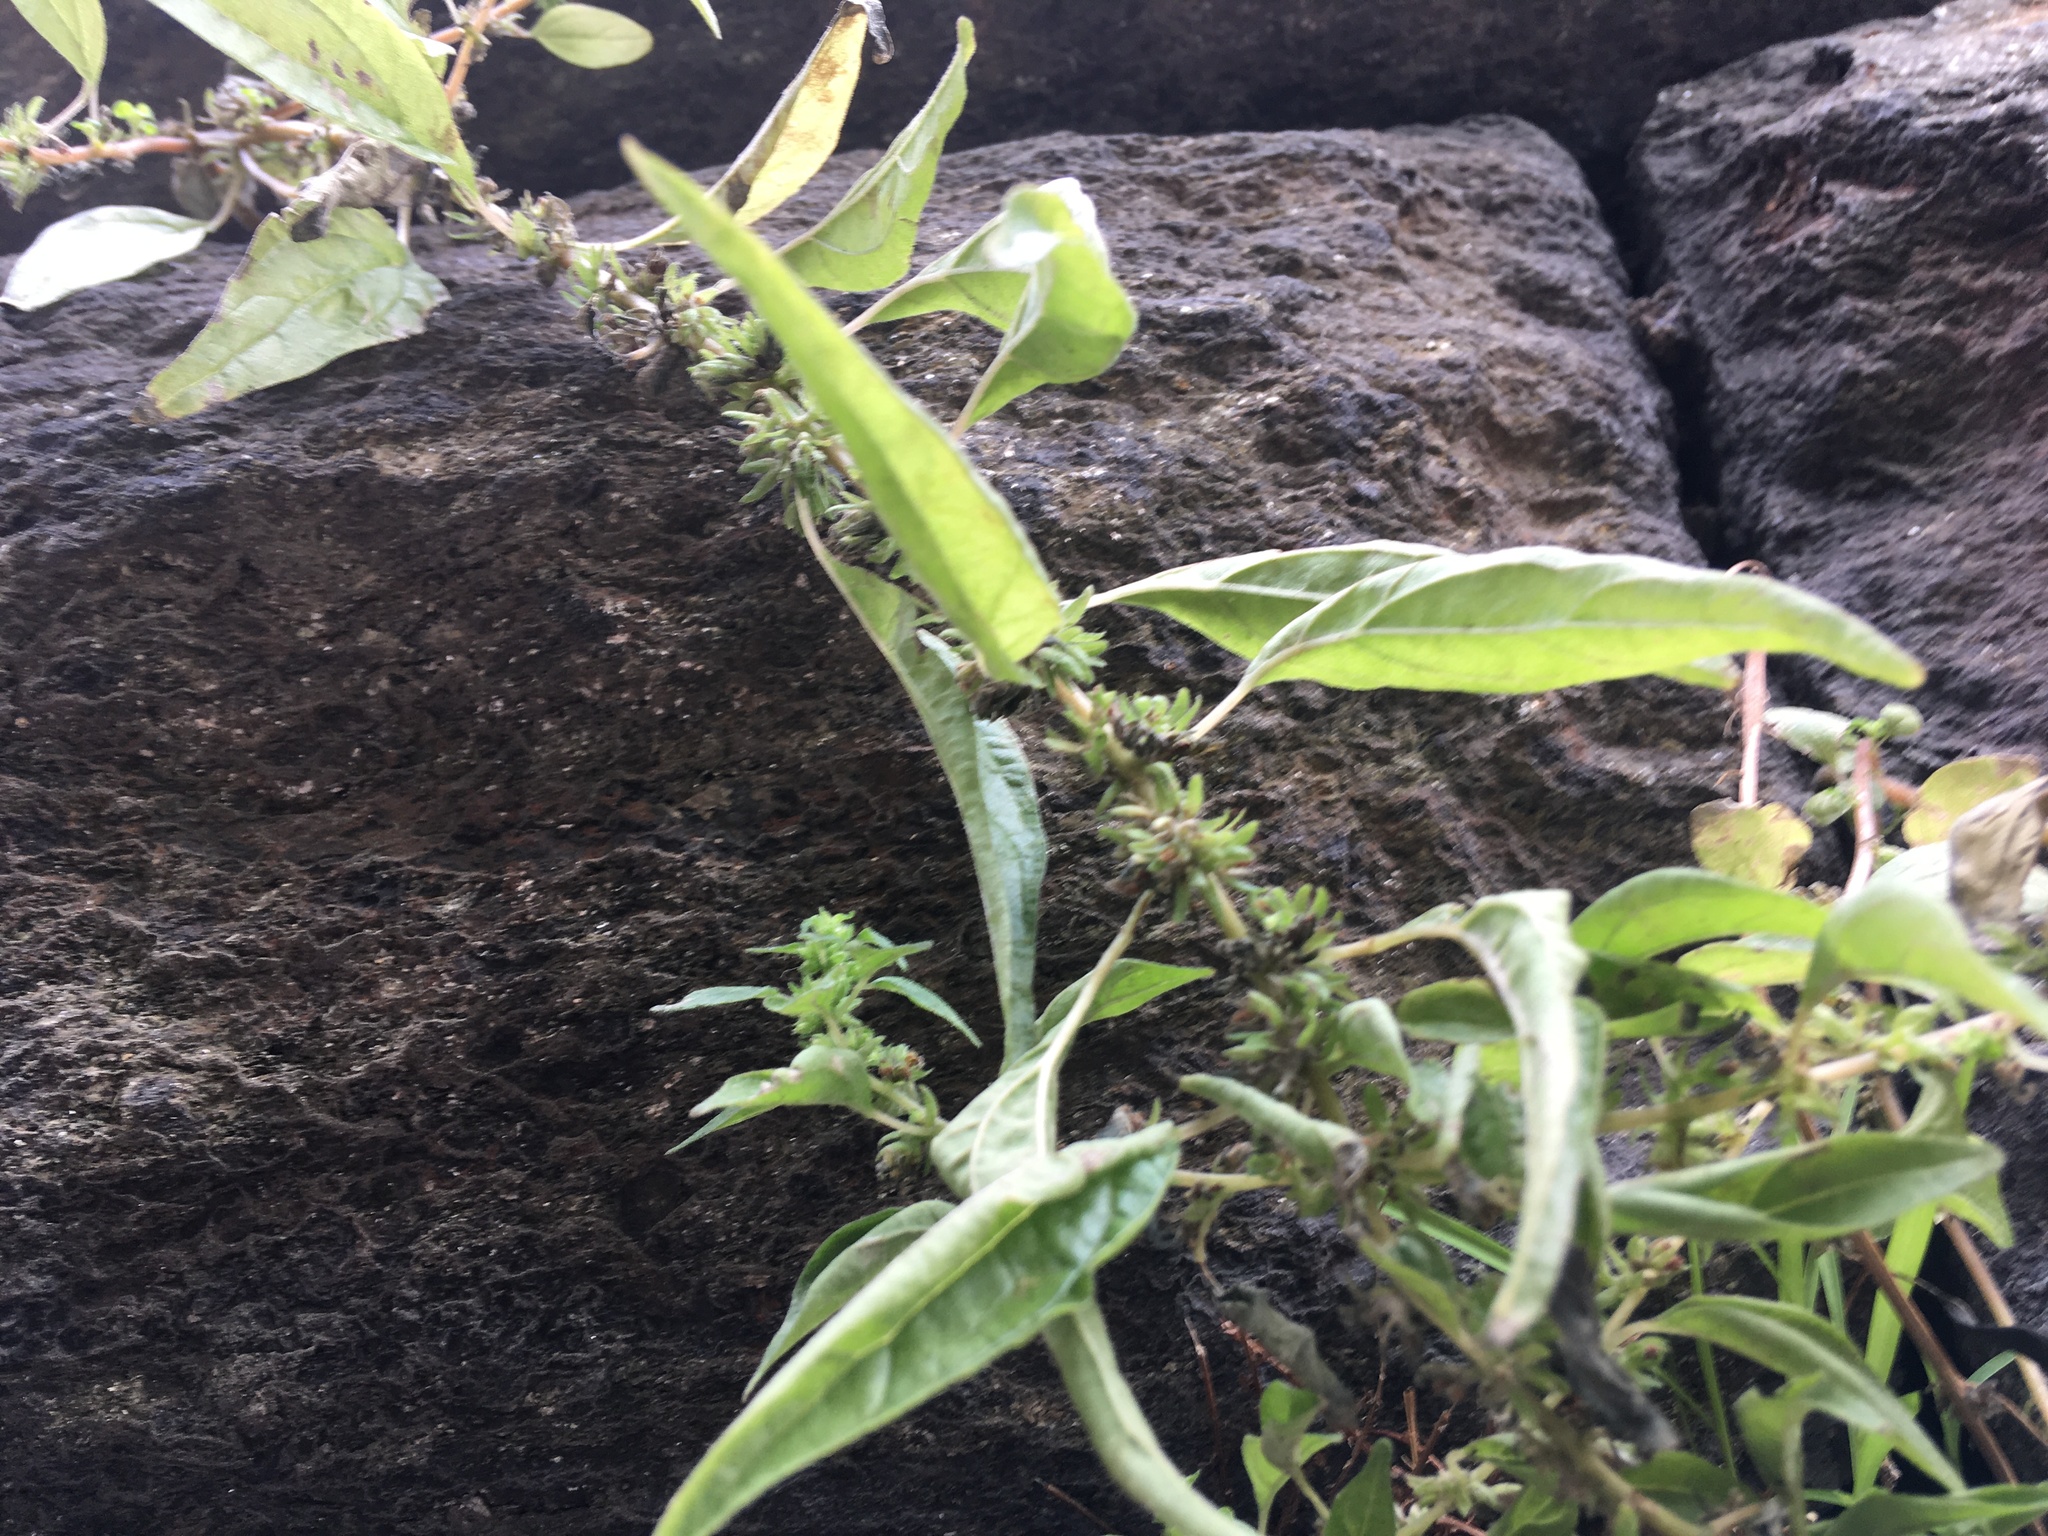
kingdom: Plantae
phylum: Tracheophyta
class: Magnoliopsida
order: Rosales
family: Urticaceae
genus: Parietaria
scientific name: Parietaria pensylvanica
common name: Pennsylvania pellitory
